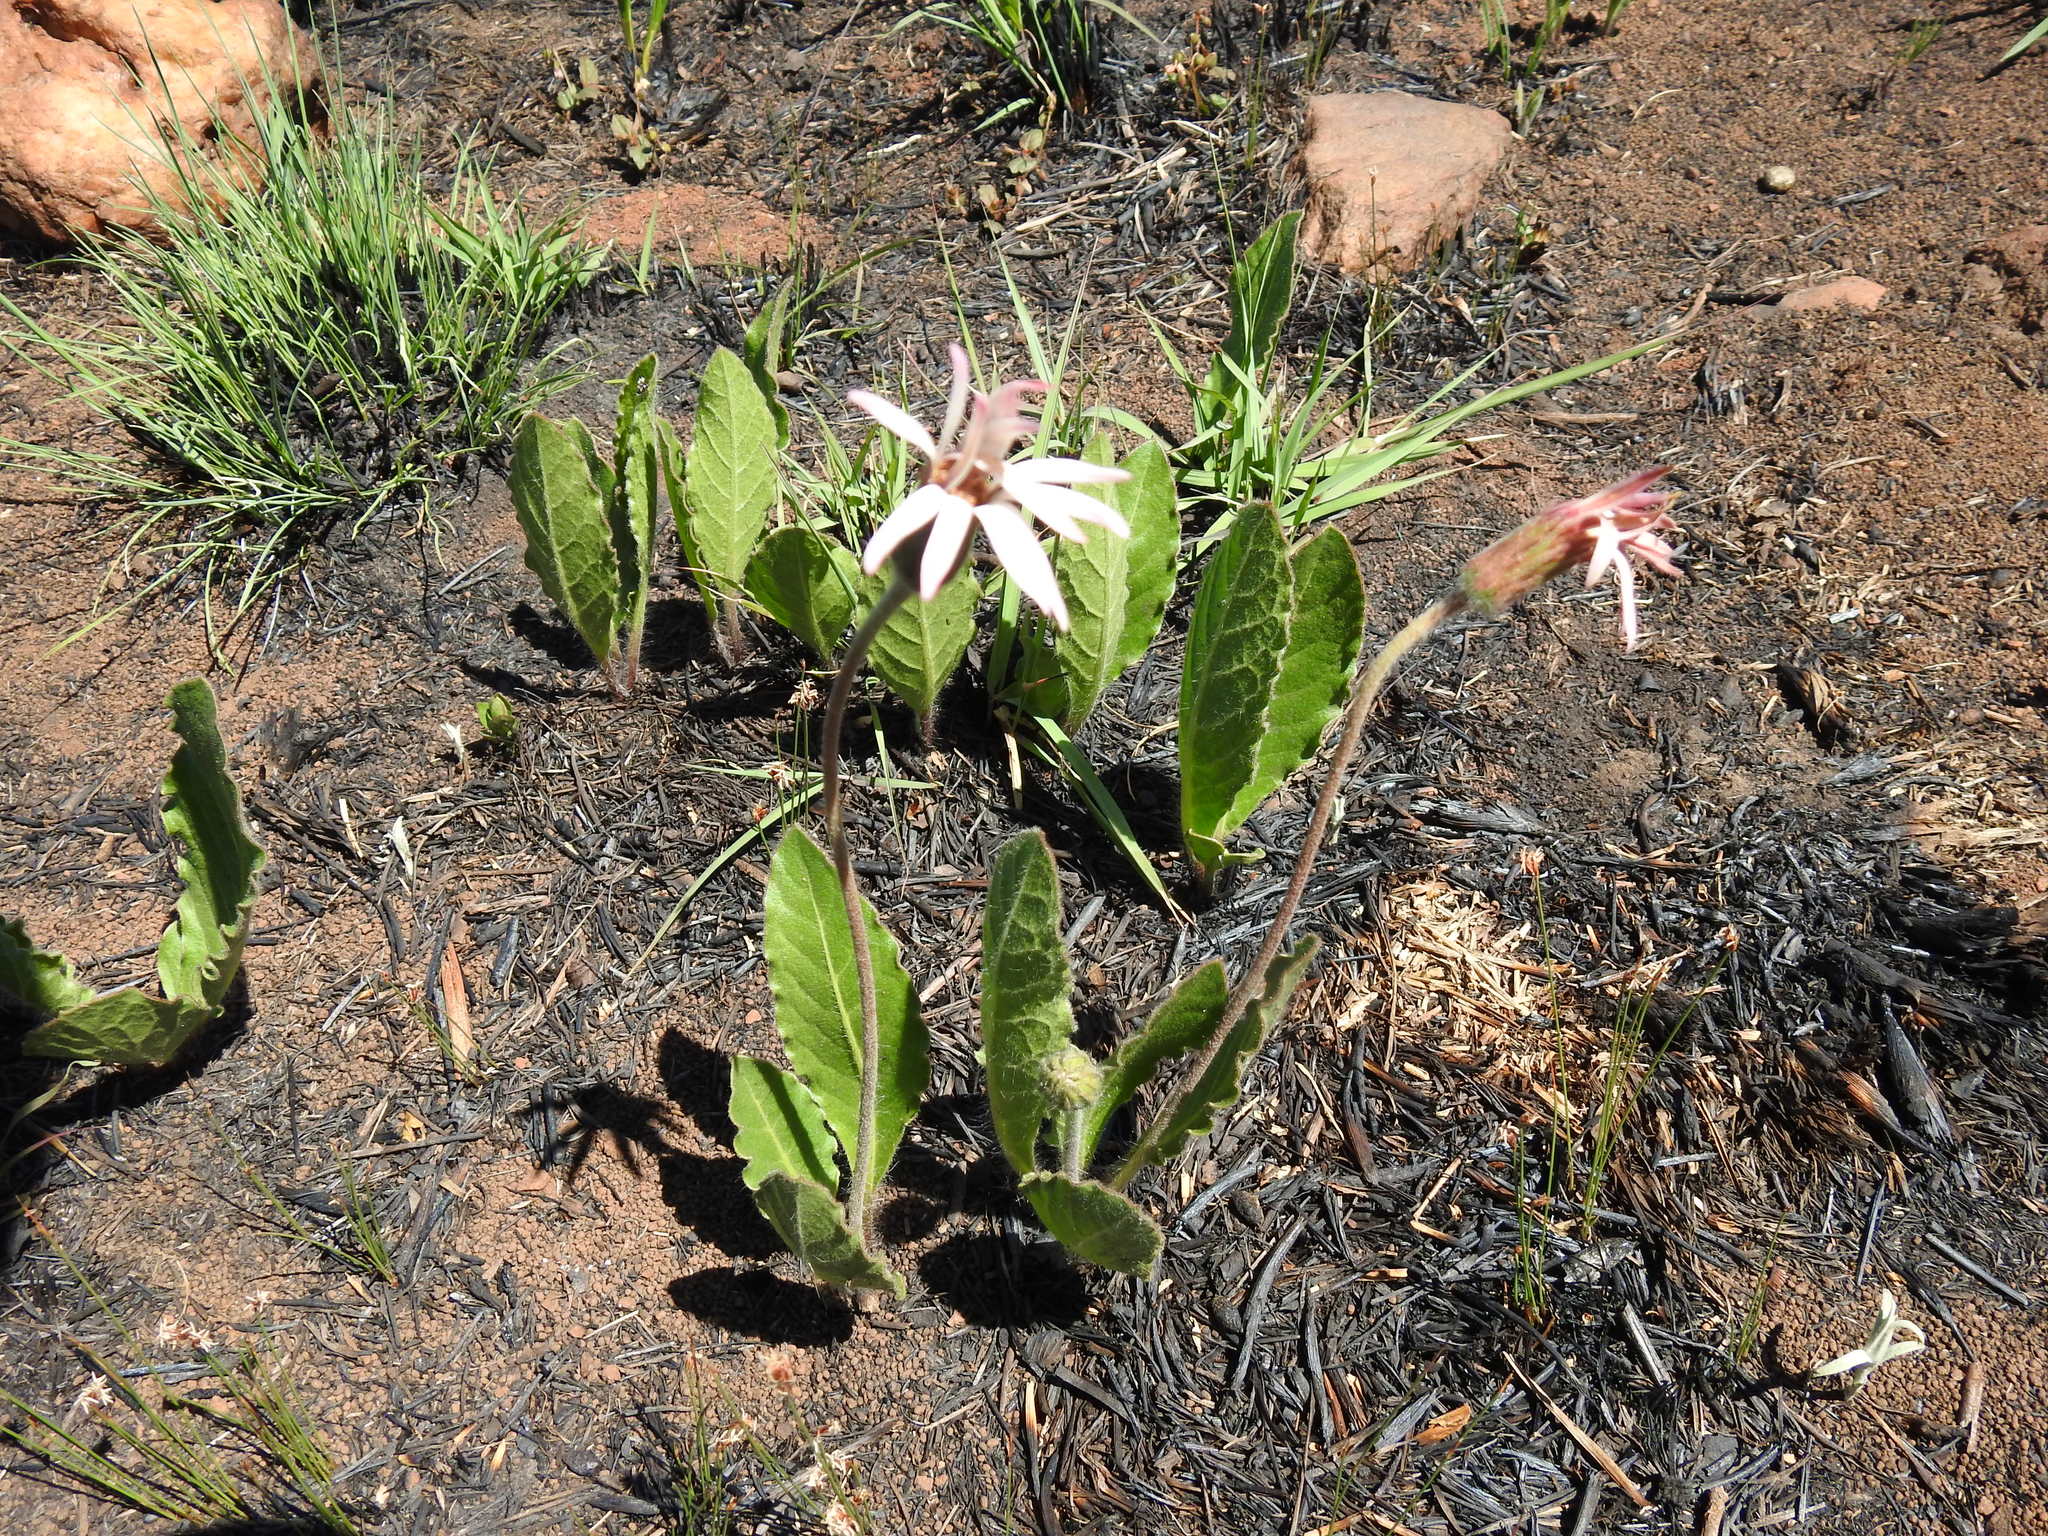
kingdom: Plantae
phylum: Tracheophyta
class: Magnoliopsida
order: Asterales
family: Asteraceae
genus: Gerbera
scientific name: Gerbera viridifolia
